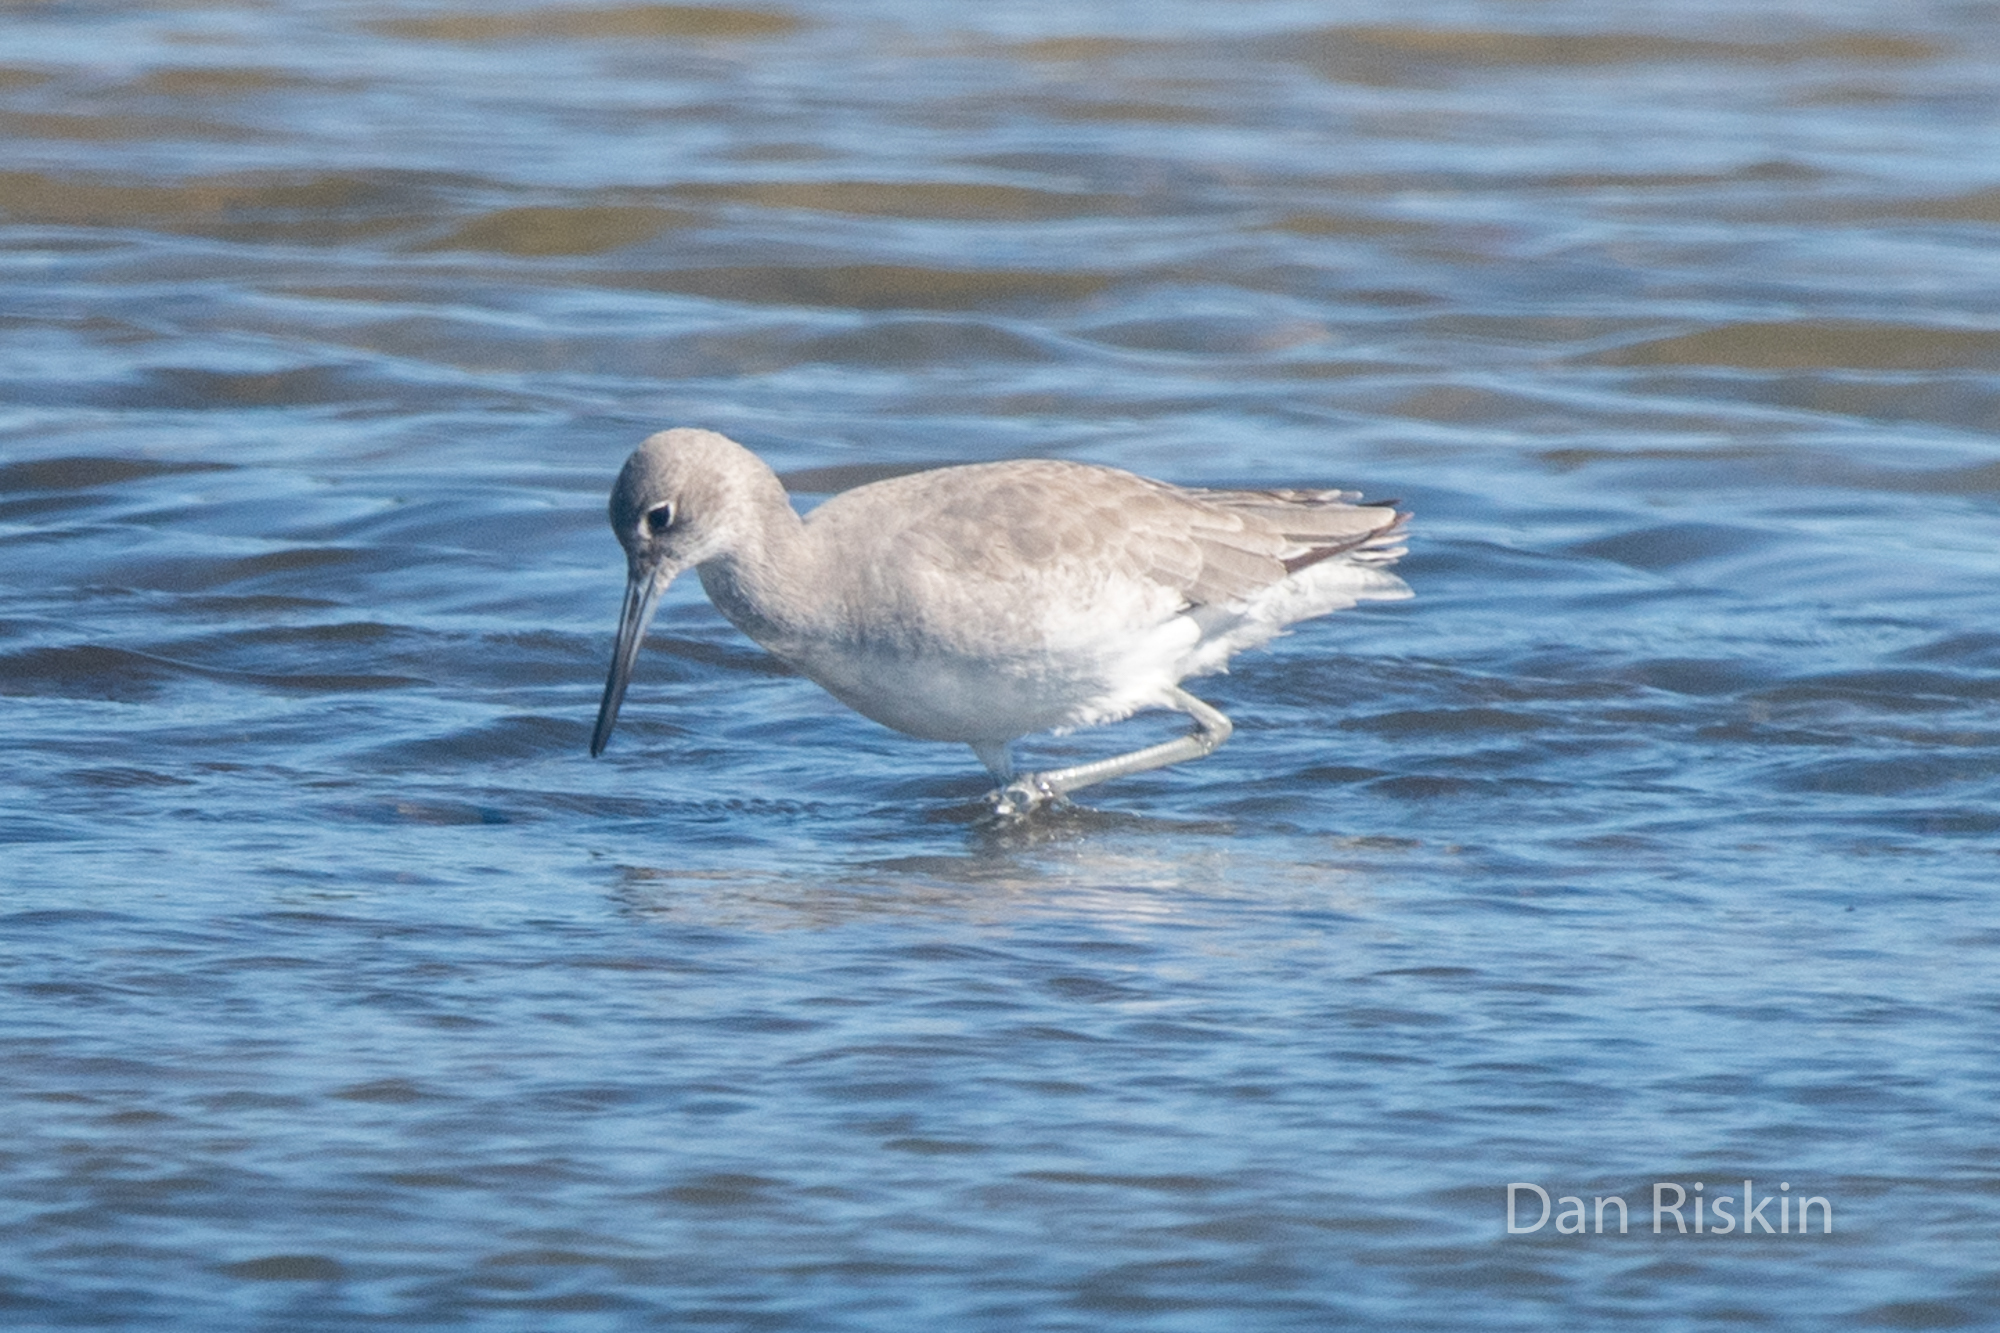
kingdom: Animalia
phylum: Chordata
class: Aves
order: Charadriiformes
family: Scolopacidae
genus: Tringa
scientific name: Tringa semipalmata
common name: Willet
